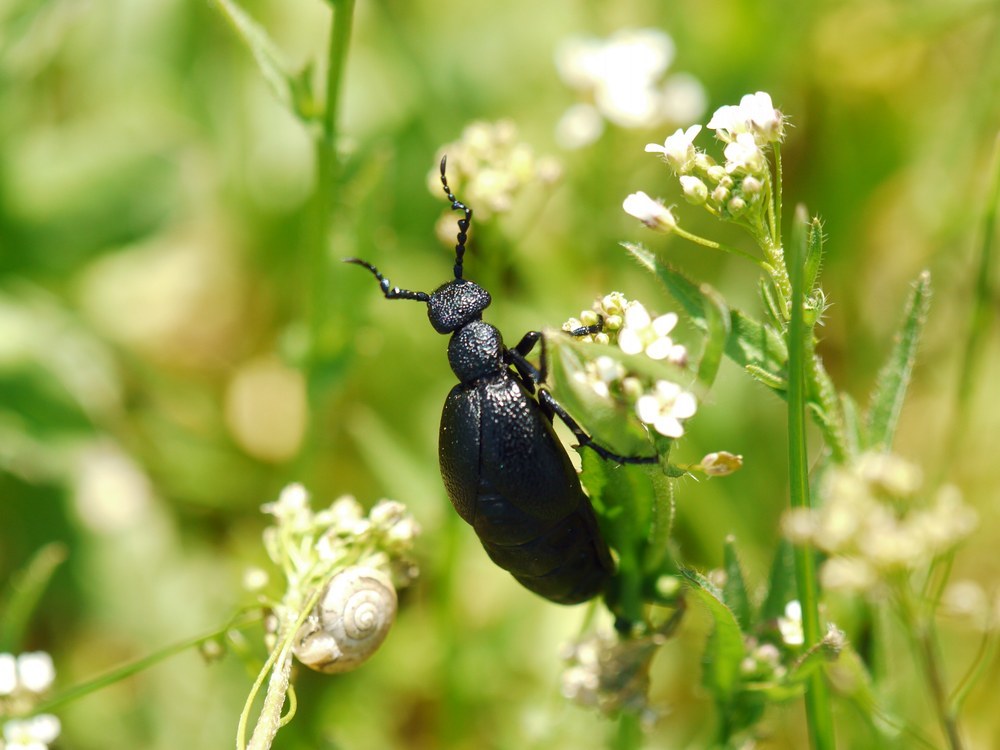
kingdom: Animalia
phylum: Arthropoda
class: Insecta
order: Coleoptera
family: Meloidae
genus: Meloe
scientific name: Meloe proscarabaeus
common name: Black oil-beetle
